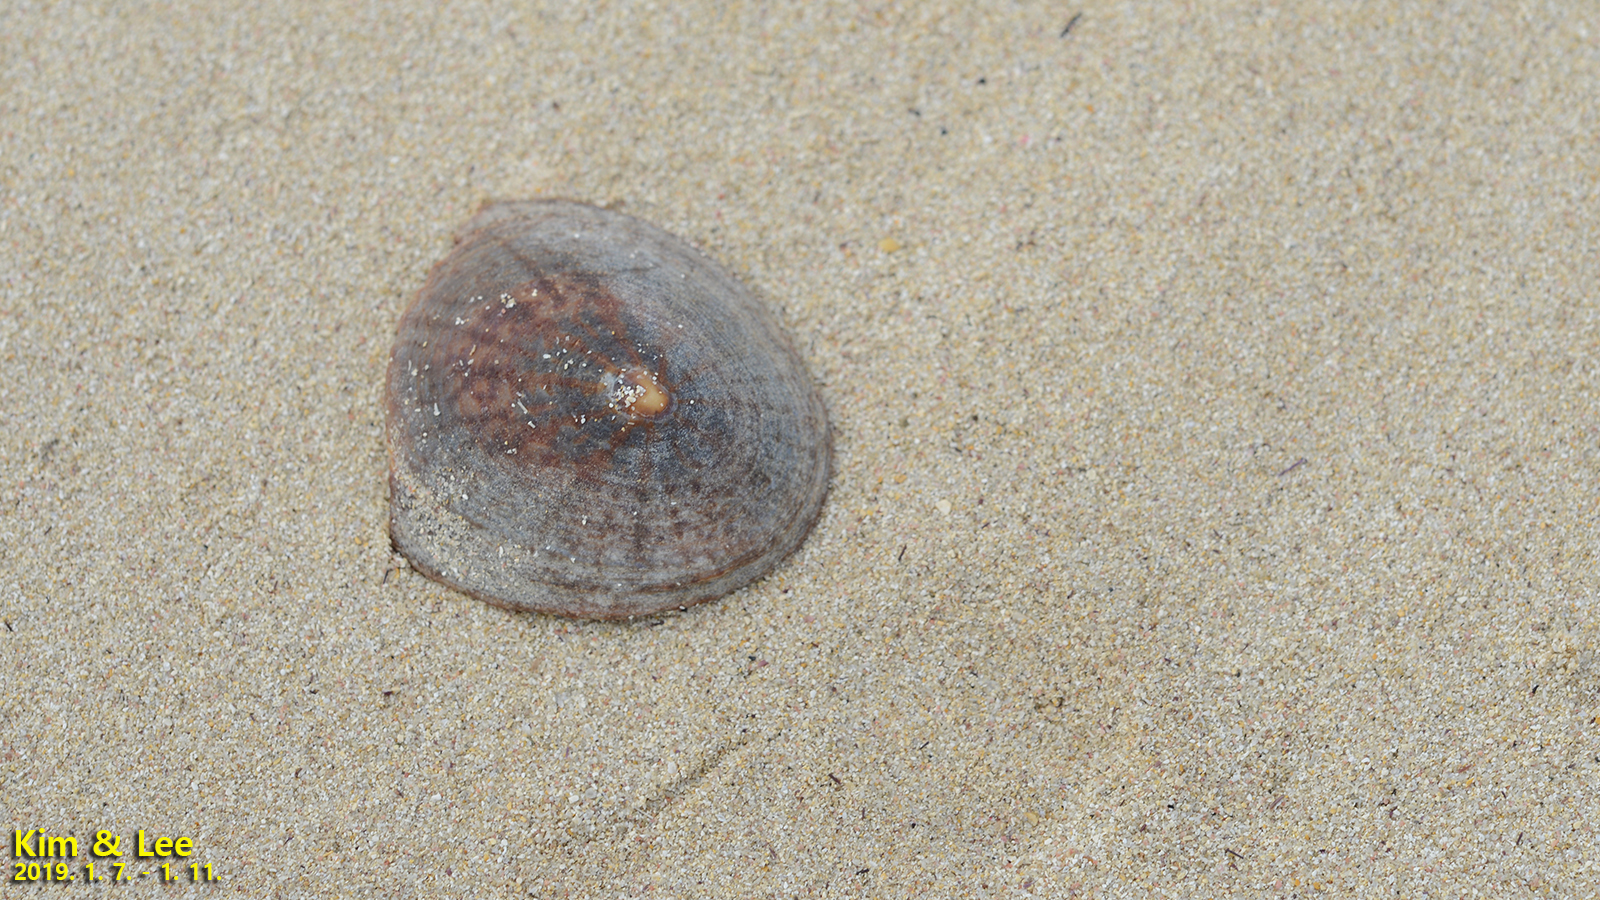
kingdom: Animalia
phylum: Mollusca
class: Gastropoda
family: Nacellidae
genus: Cellana
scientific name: Cellana nigrolineata
